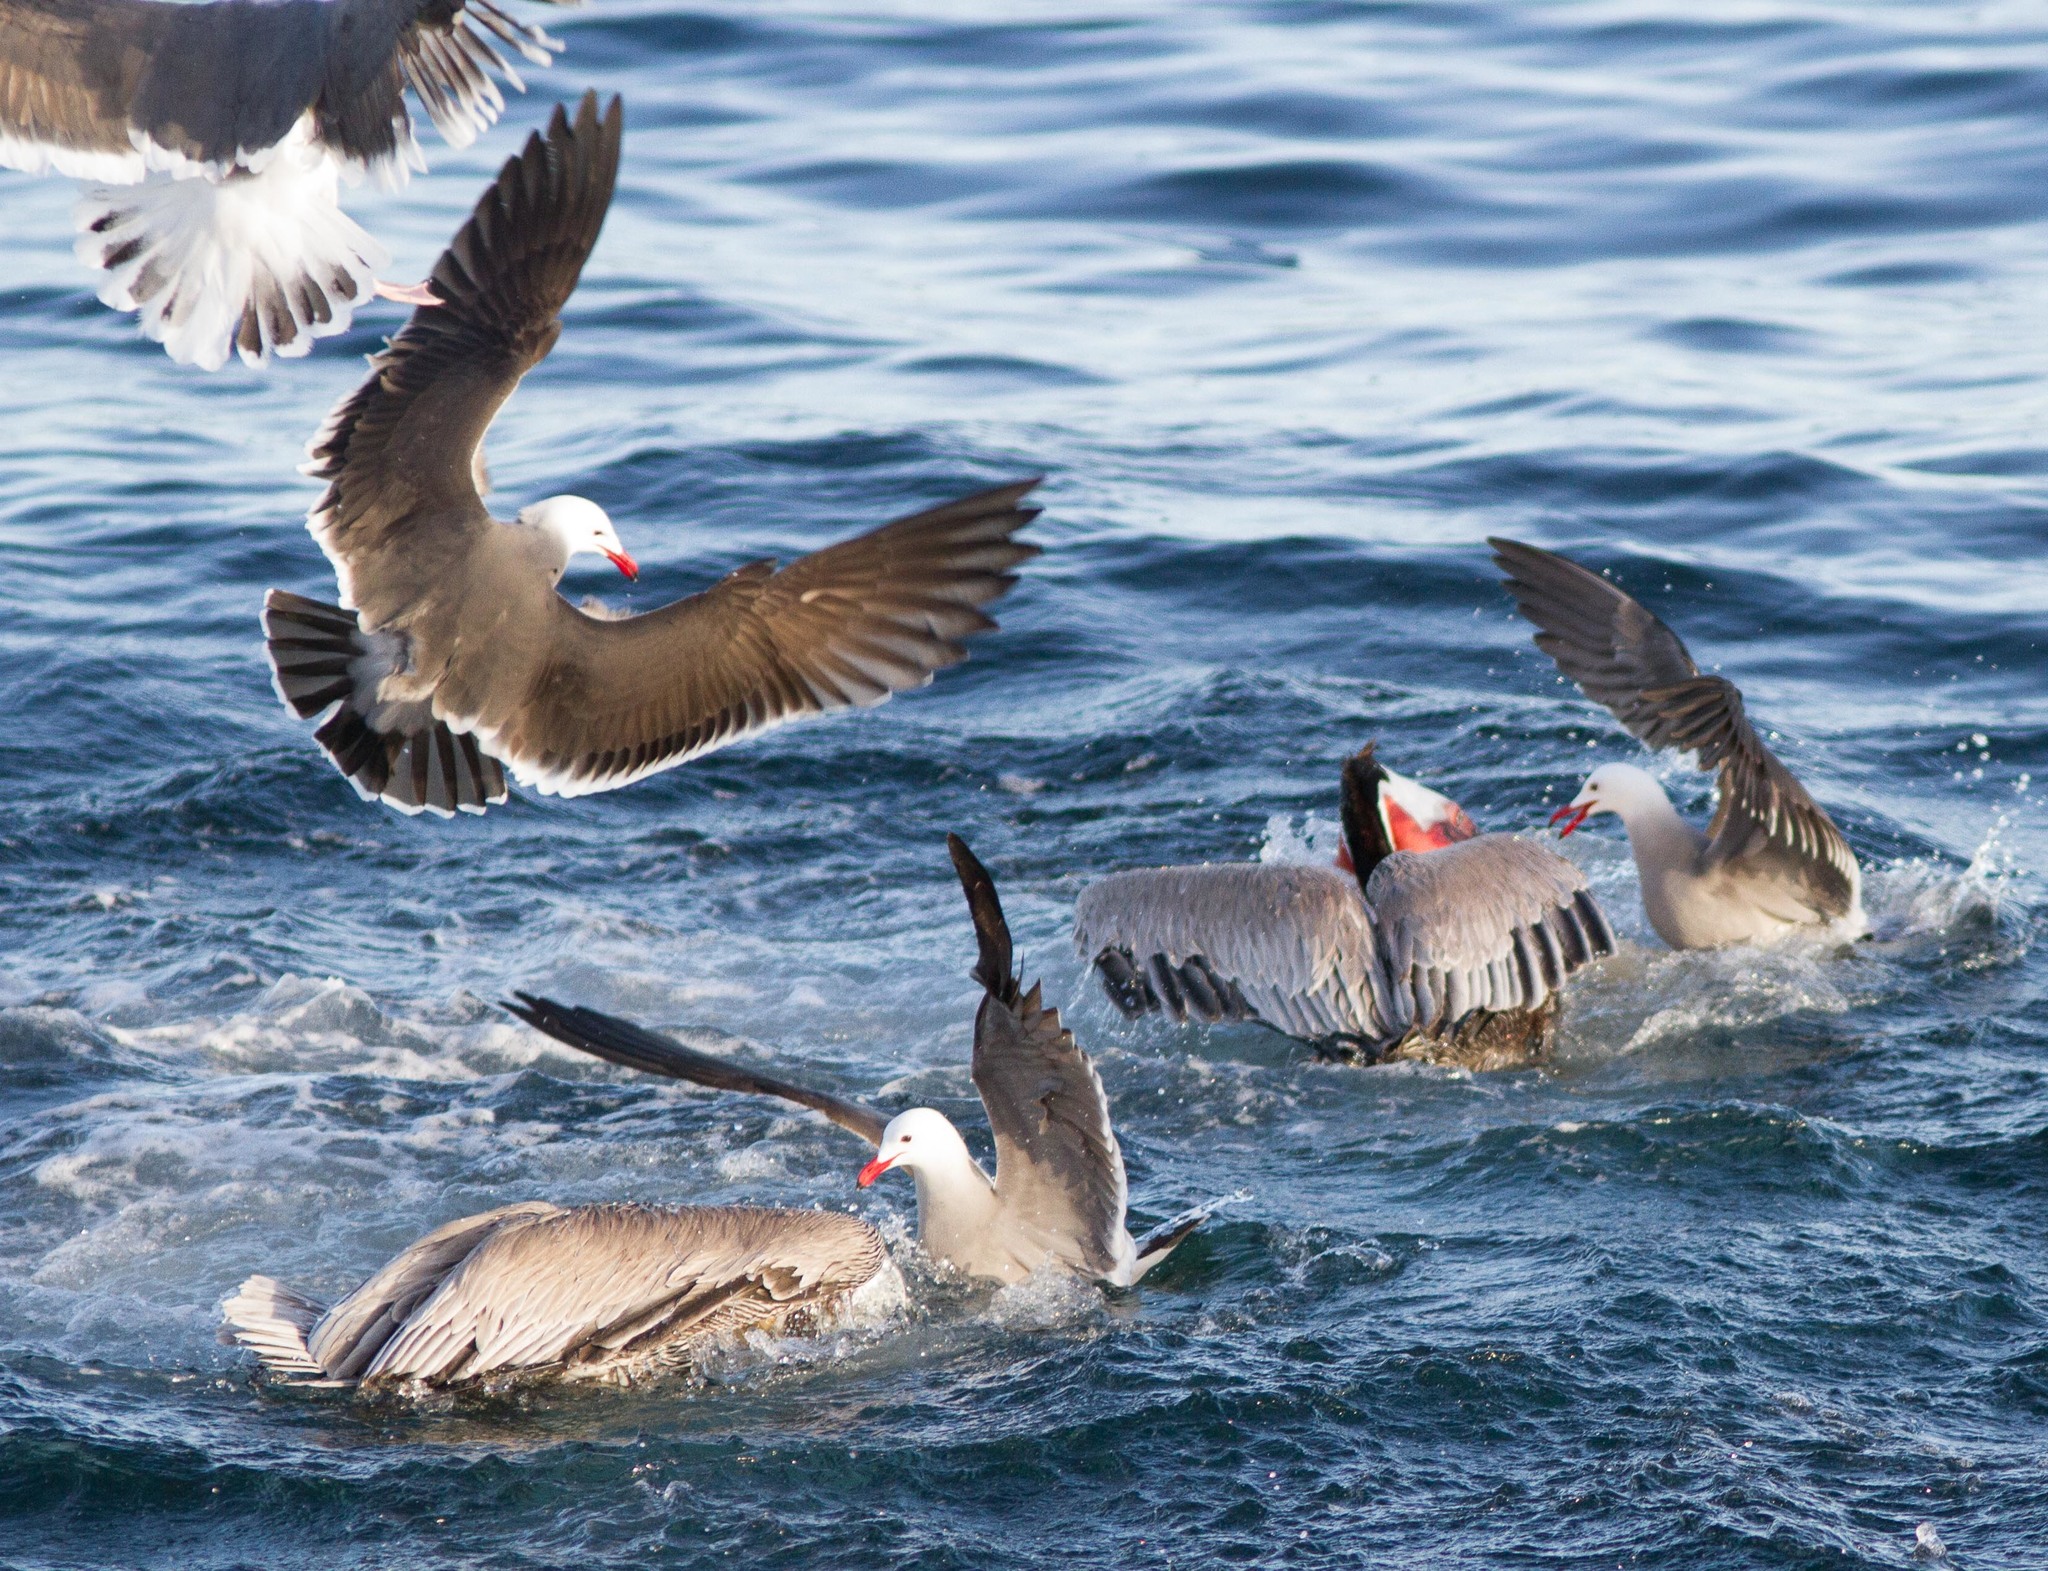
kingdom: Animalia
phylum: Chordata
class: Aves
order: Charadriiformes
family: Laridae
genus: Larus
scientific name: Larus occidentalis
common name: Western gull
